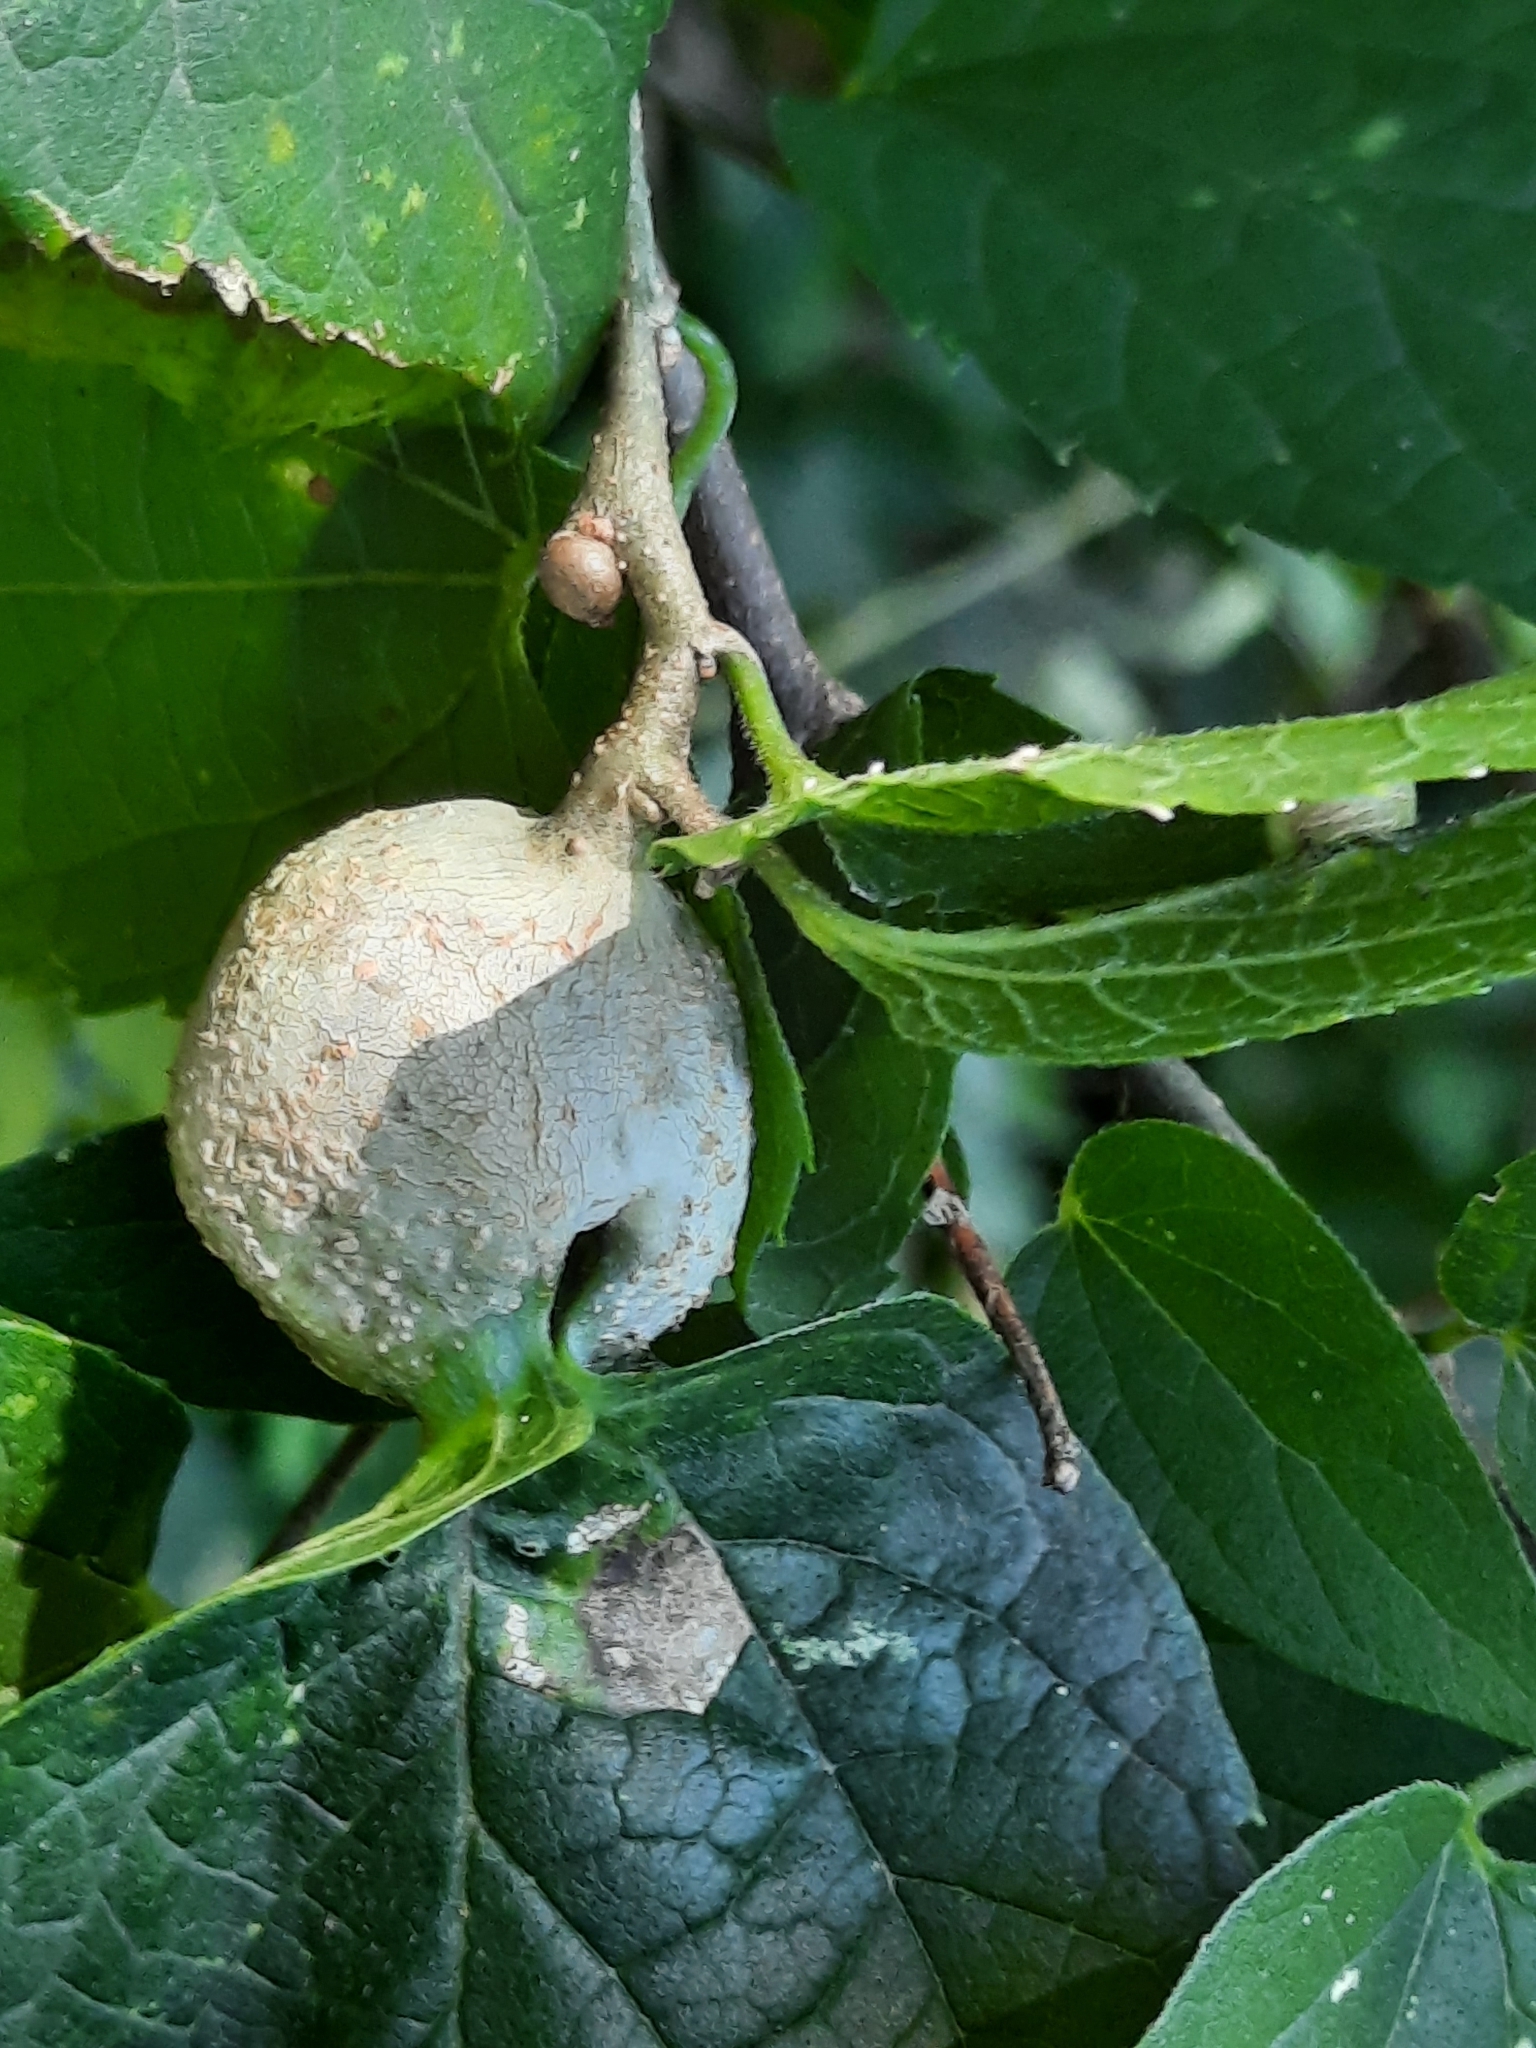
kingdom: Animalia
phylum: Arthropoda
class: Insecta
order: Hemiptera
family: Aphalaridae
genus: Pachypsylla
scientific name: Pachypsylla venusta
